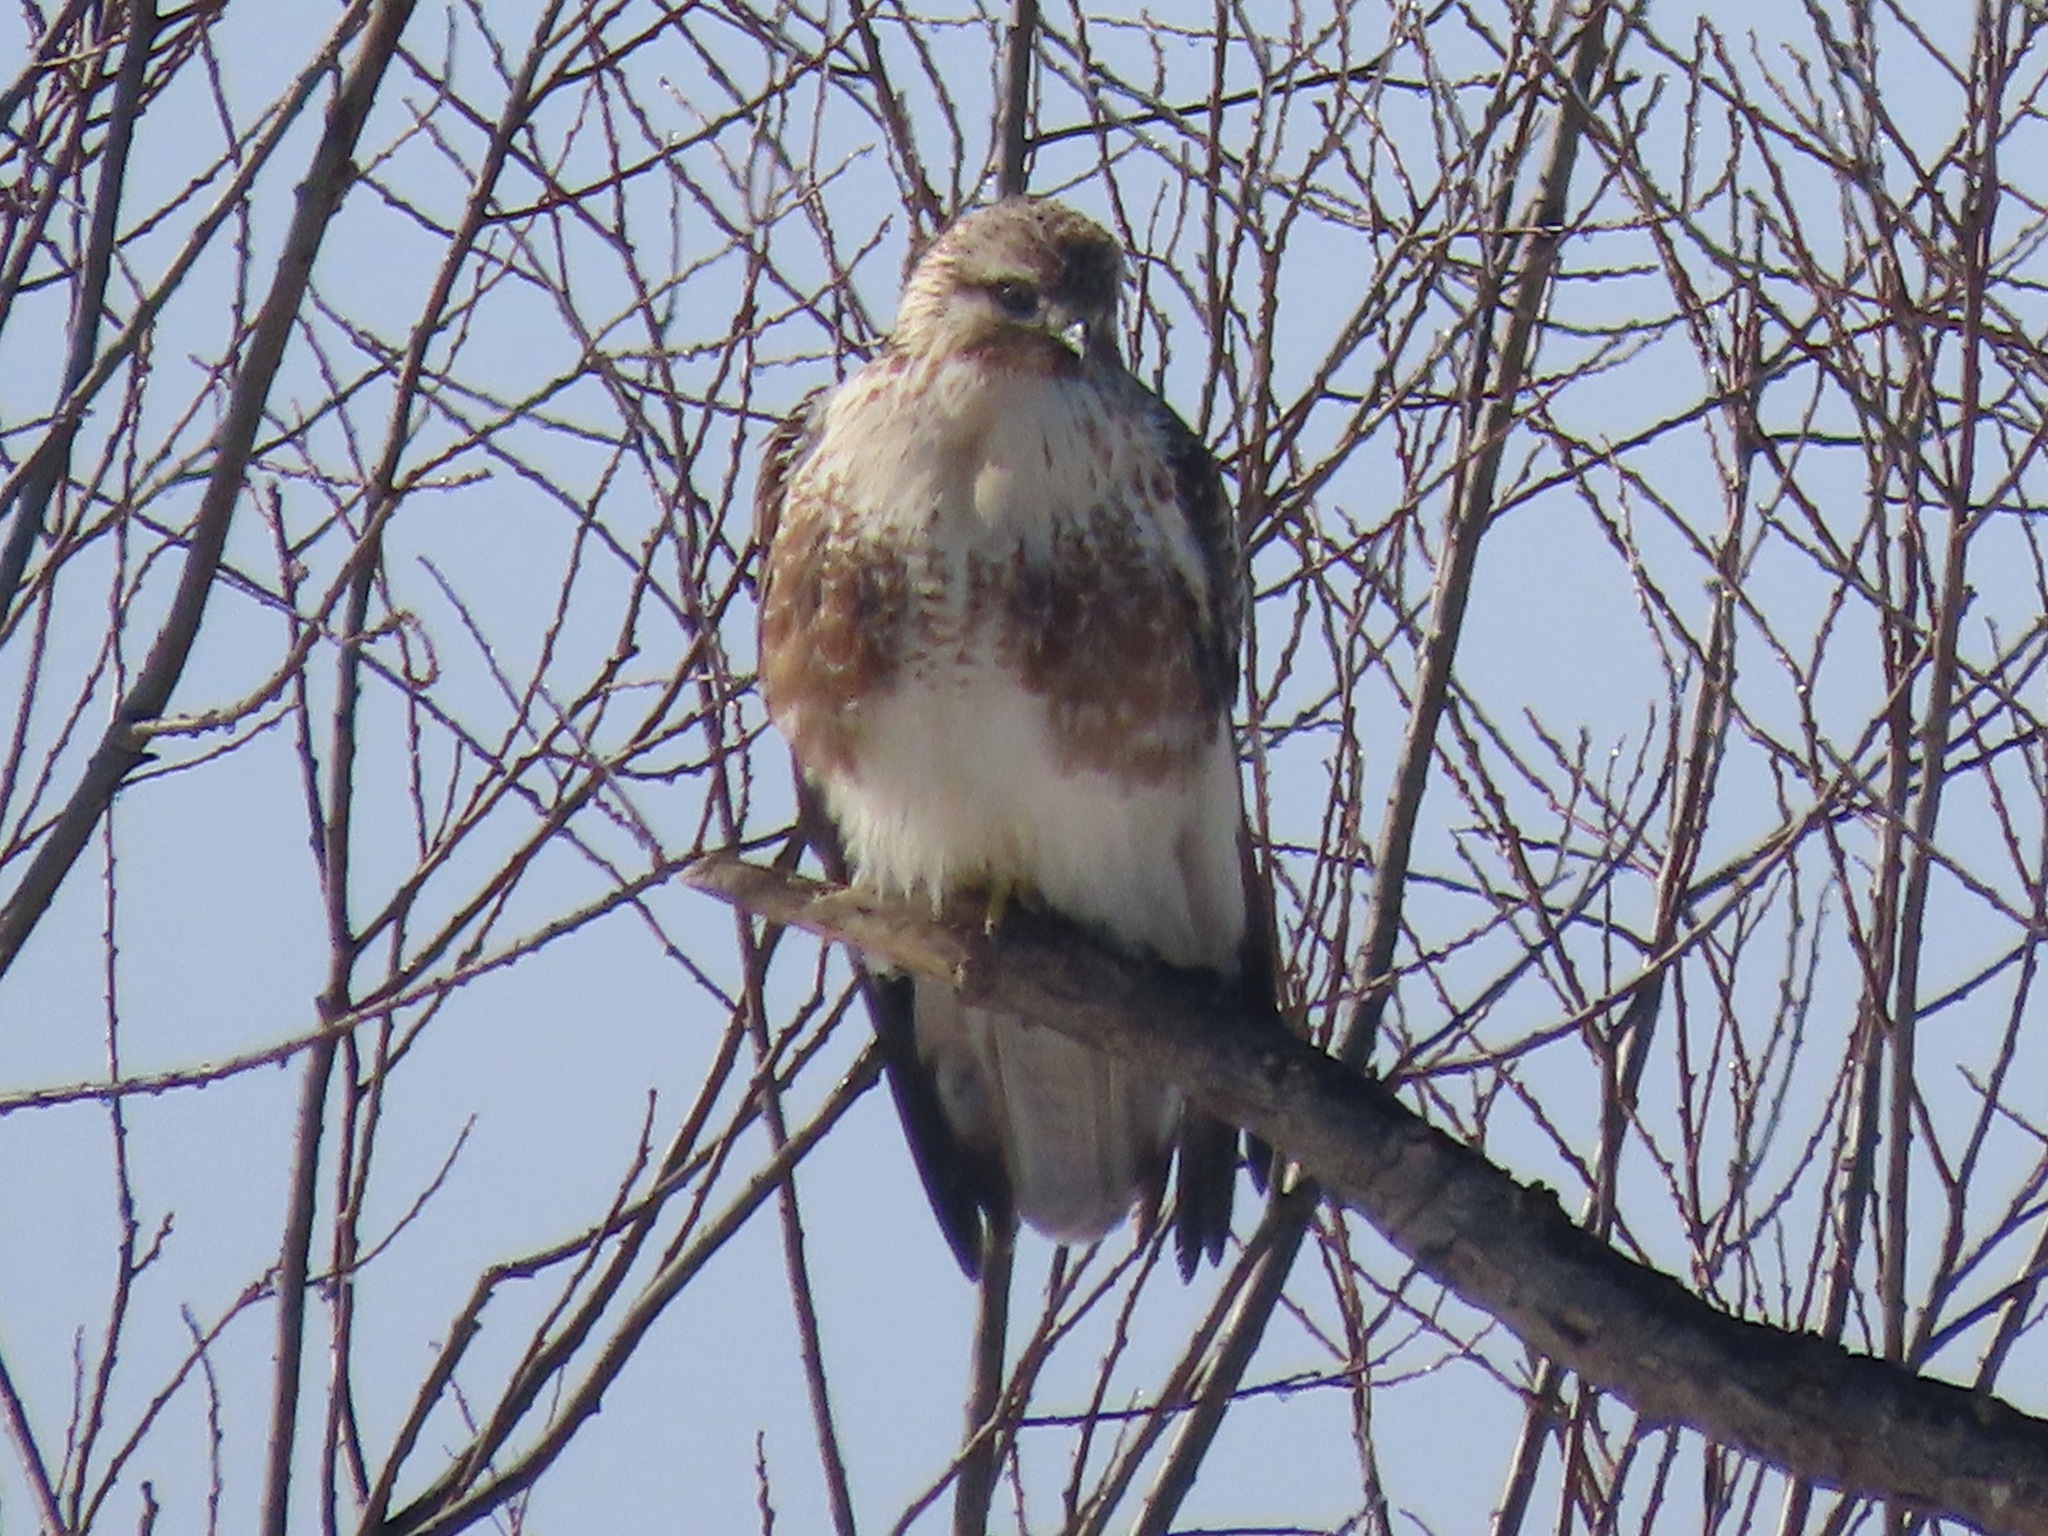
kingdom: Animalia
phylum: Chordata
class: Aves
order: Accipitriformes
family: Accipitridae
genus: Buteo
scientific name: Buteo japonicus
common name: Eastern buzzard
